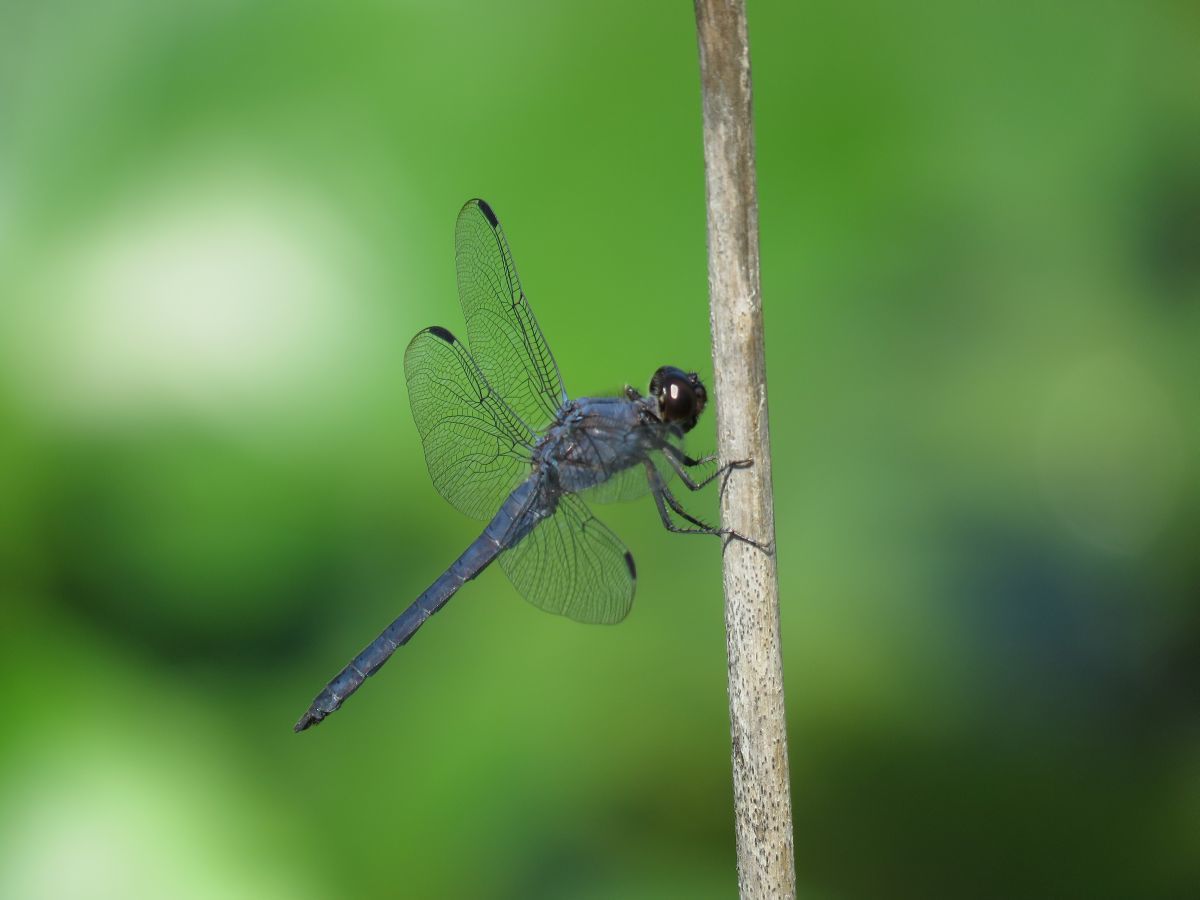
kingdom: Animalia
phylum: Arthropoda
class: Insecta
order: Odonata
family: Libellulidae
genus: Libellula
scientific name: Libellula incesta
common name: Slaty skimmer
